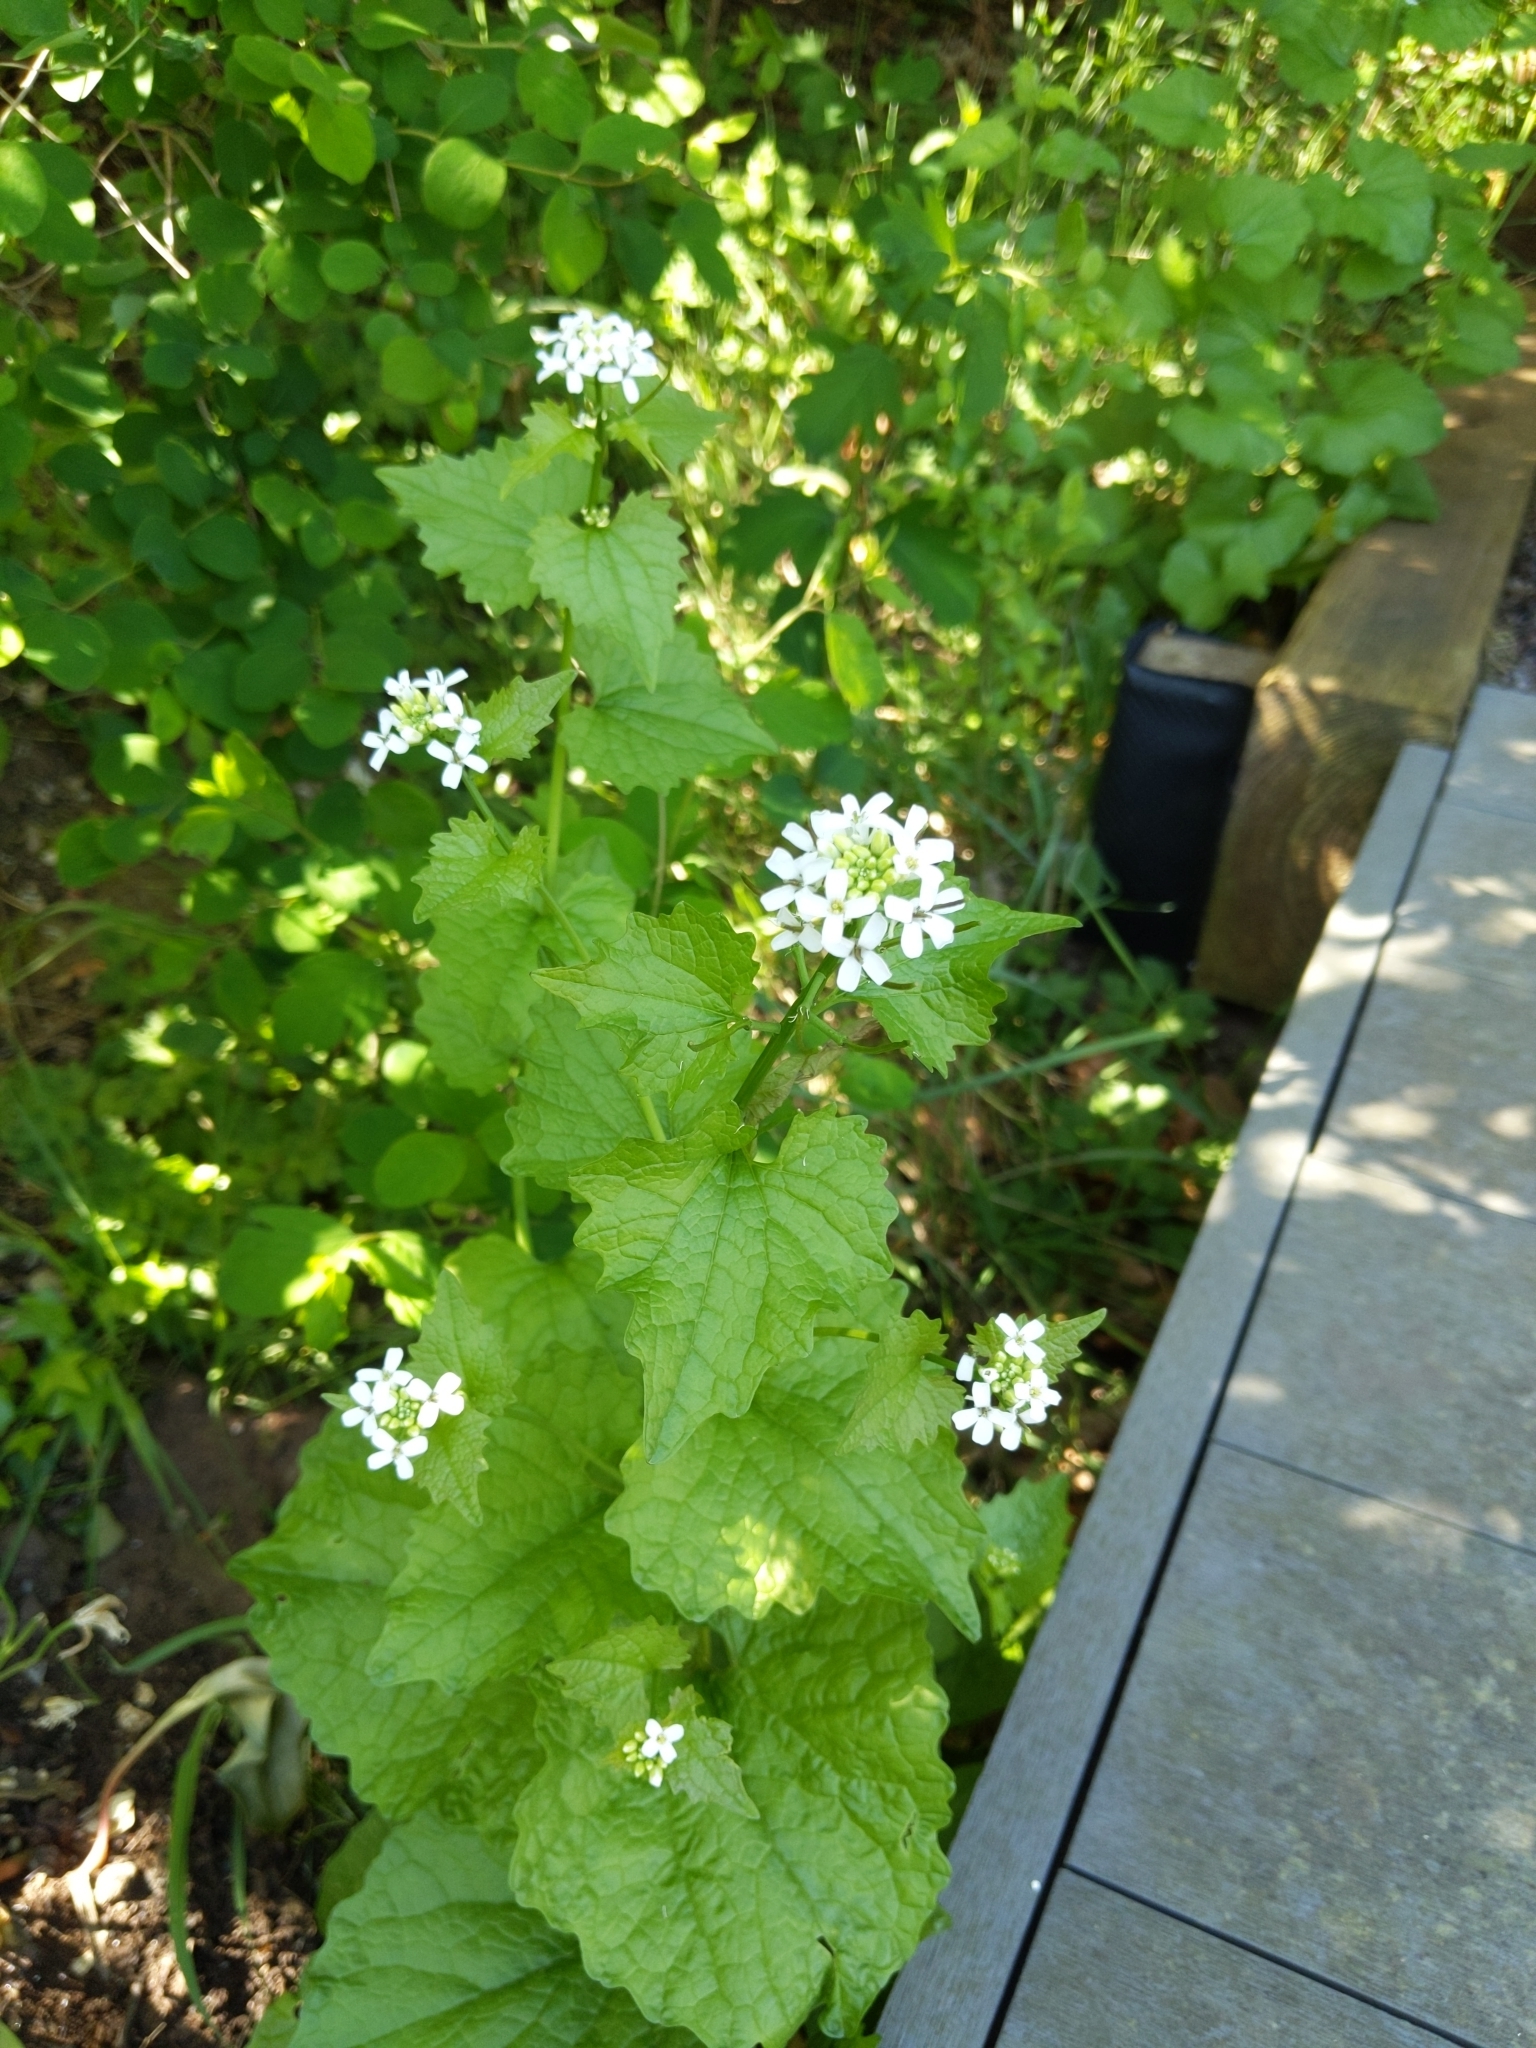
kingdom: Plantae
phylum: Tracheophyta
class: Magnoliopsida
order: Brassicales
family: Brassicaceae
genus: Alliaria
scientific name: Alliaria petiolata
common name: Garlic mustard
